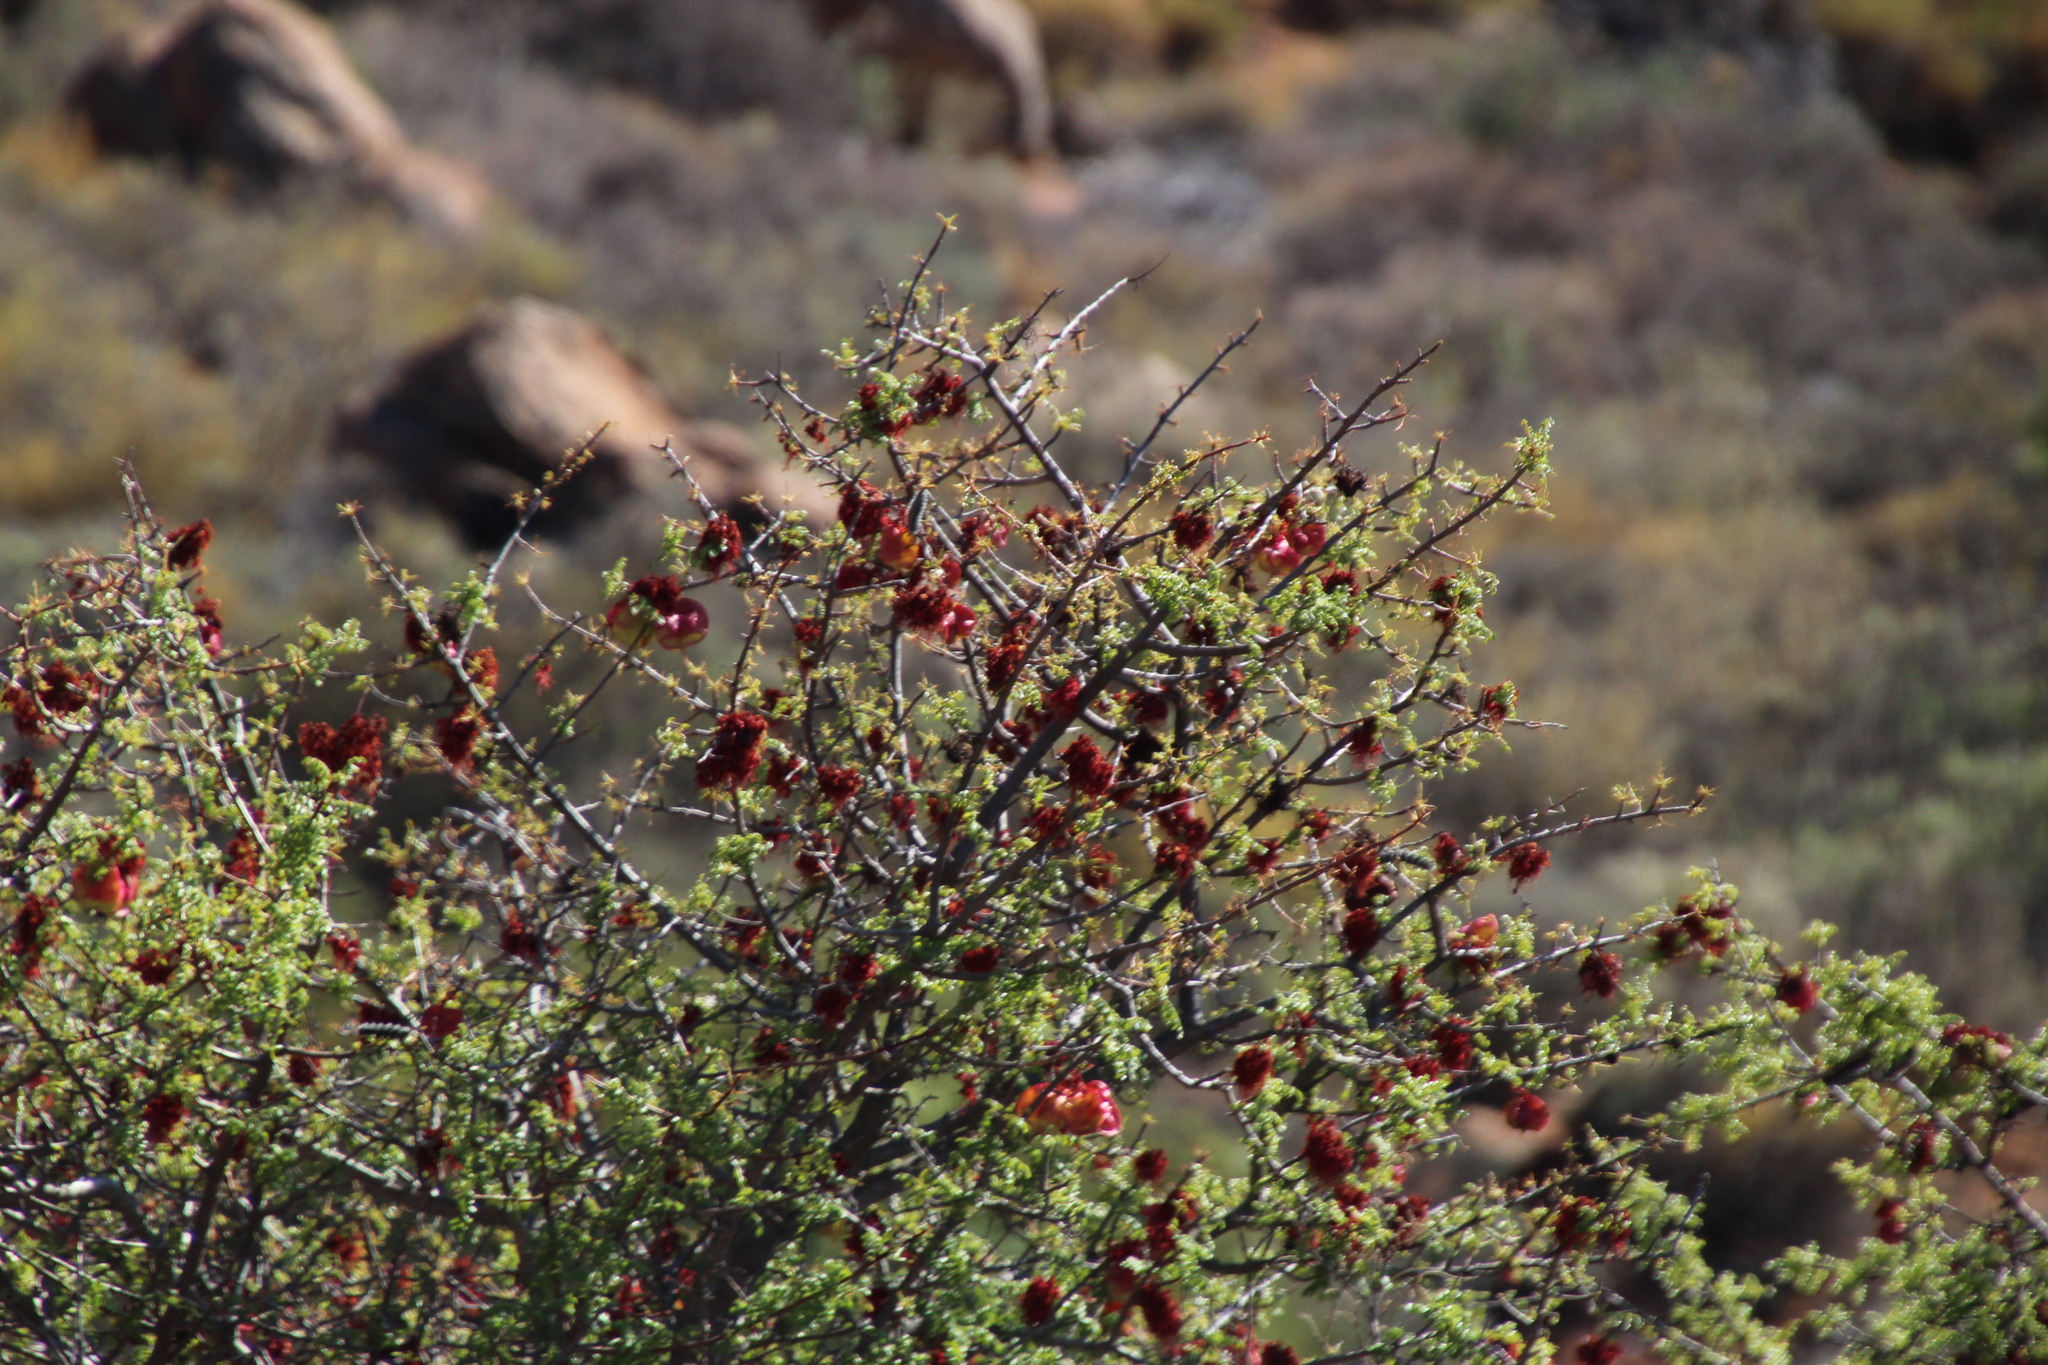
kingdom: Plantae
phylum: Tracheophyta
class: Magnoliopsida
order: Sapindales
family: Sapindaceae
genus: Erythrophysa
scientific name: Erythrophysa alata
